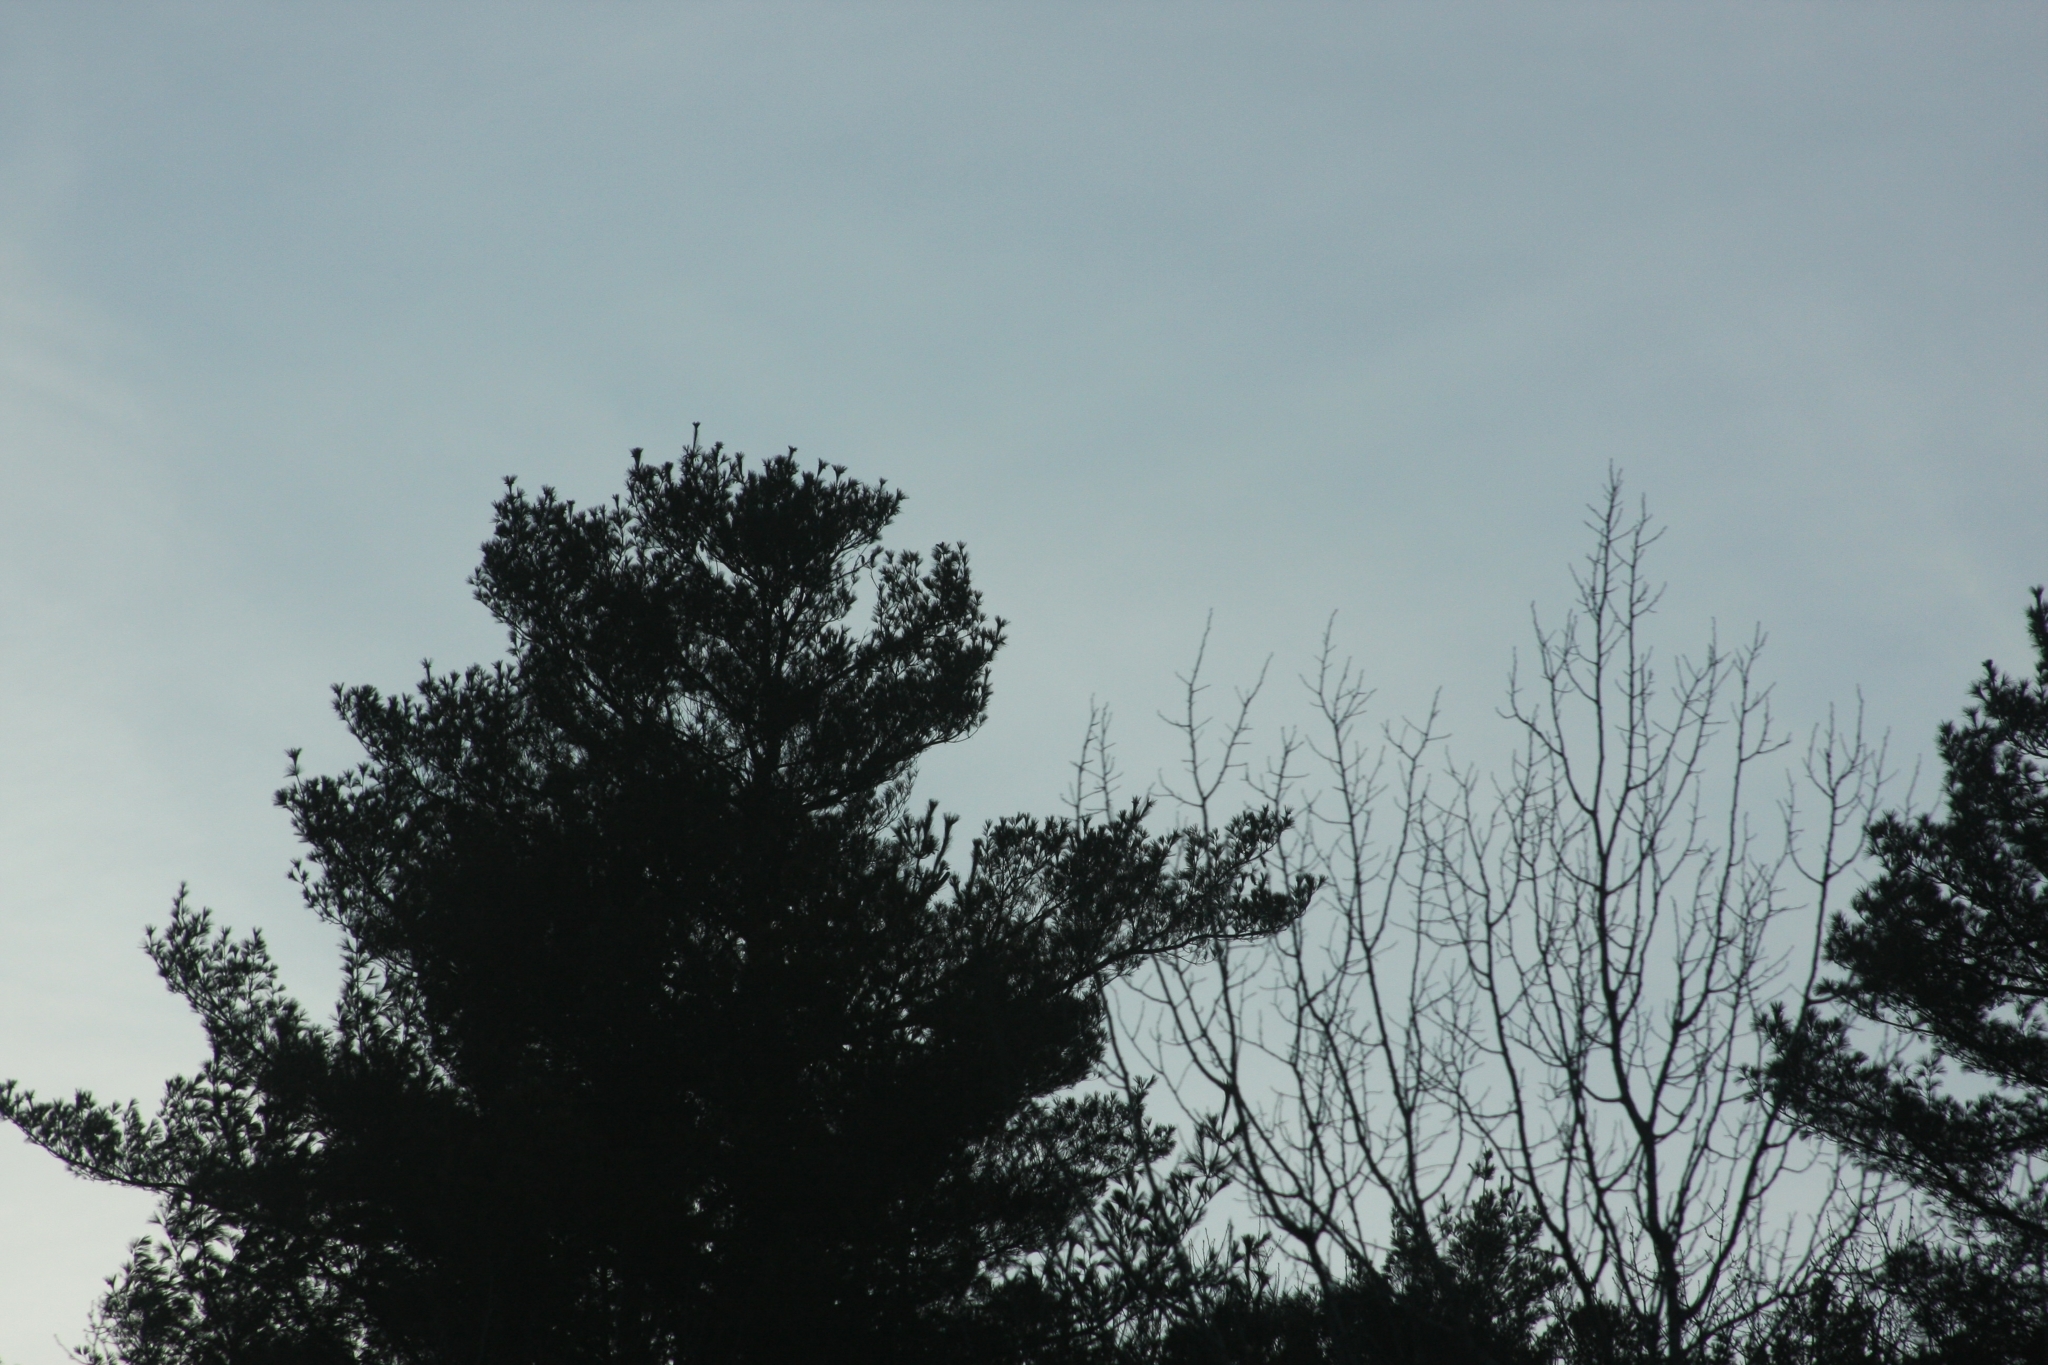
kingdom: Plantae
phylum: Tracheophyta
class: Pinopsida
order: Pinales
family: Pinaceae
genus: Pinus
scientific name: Pinus strobus
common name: Weymouth pine
